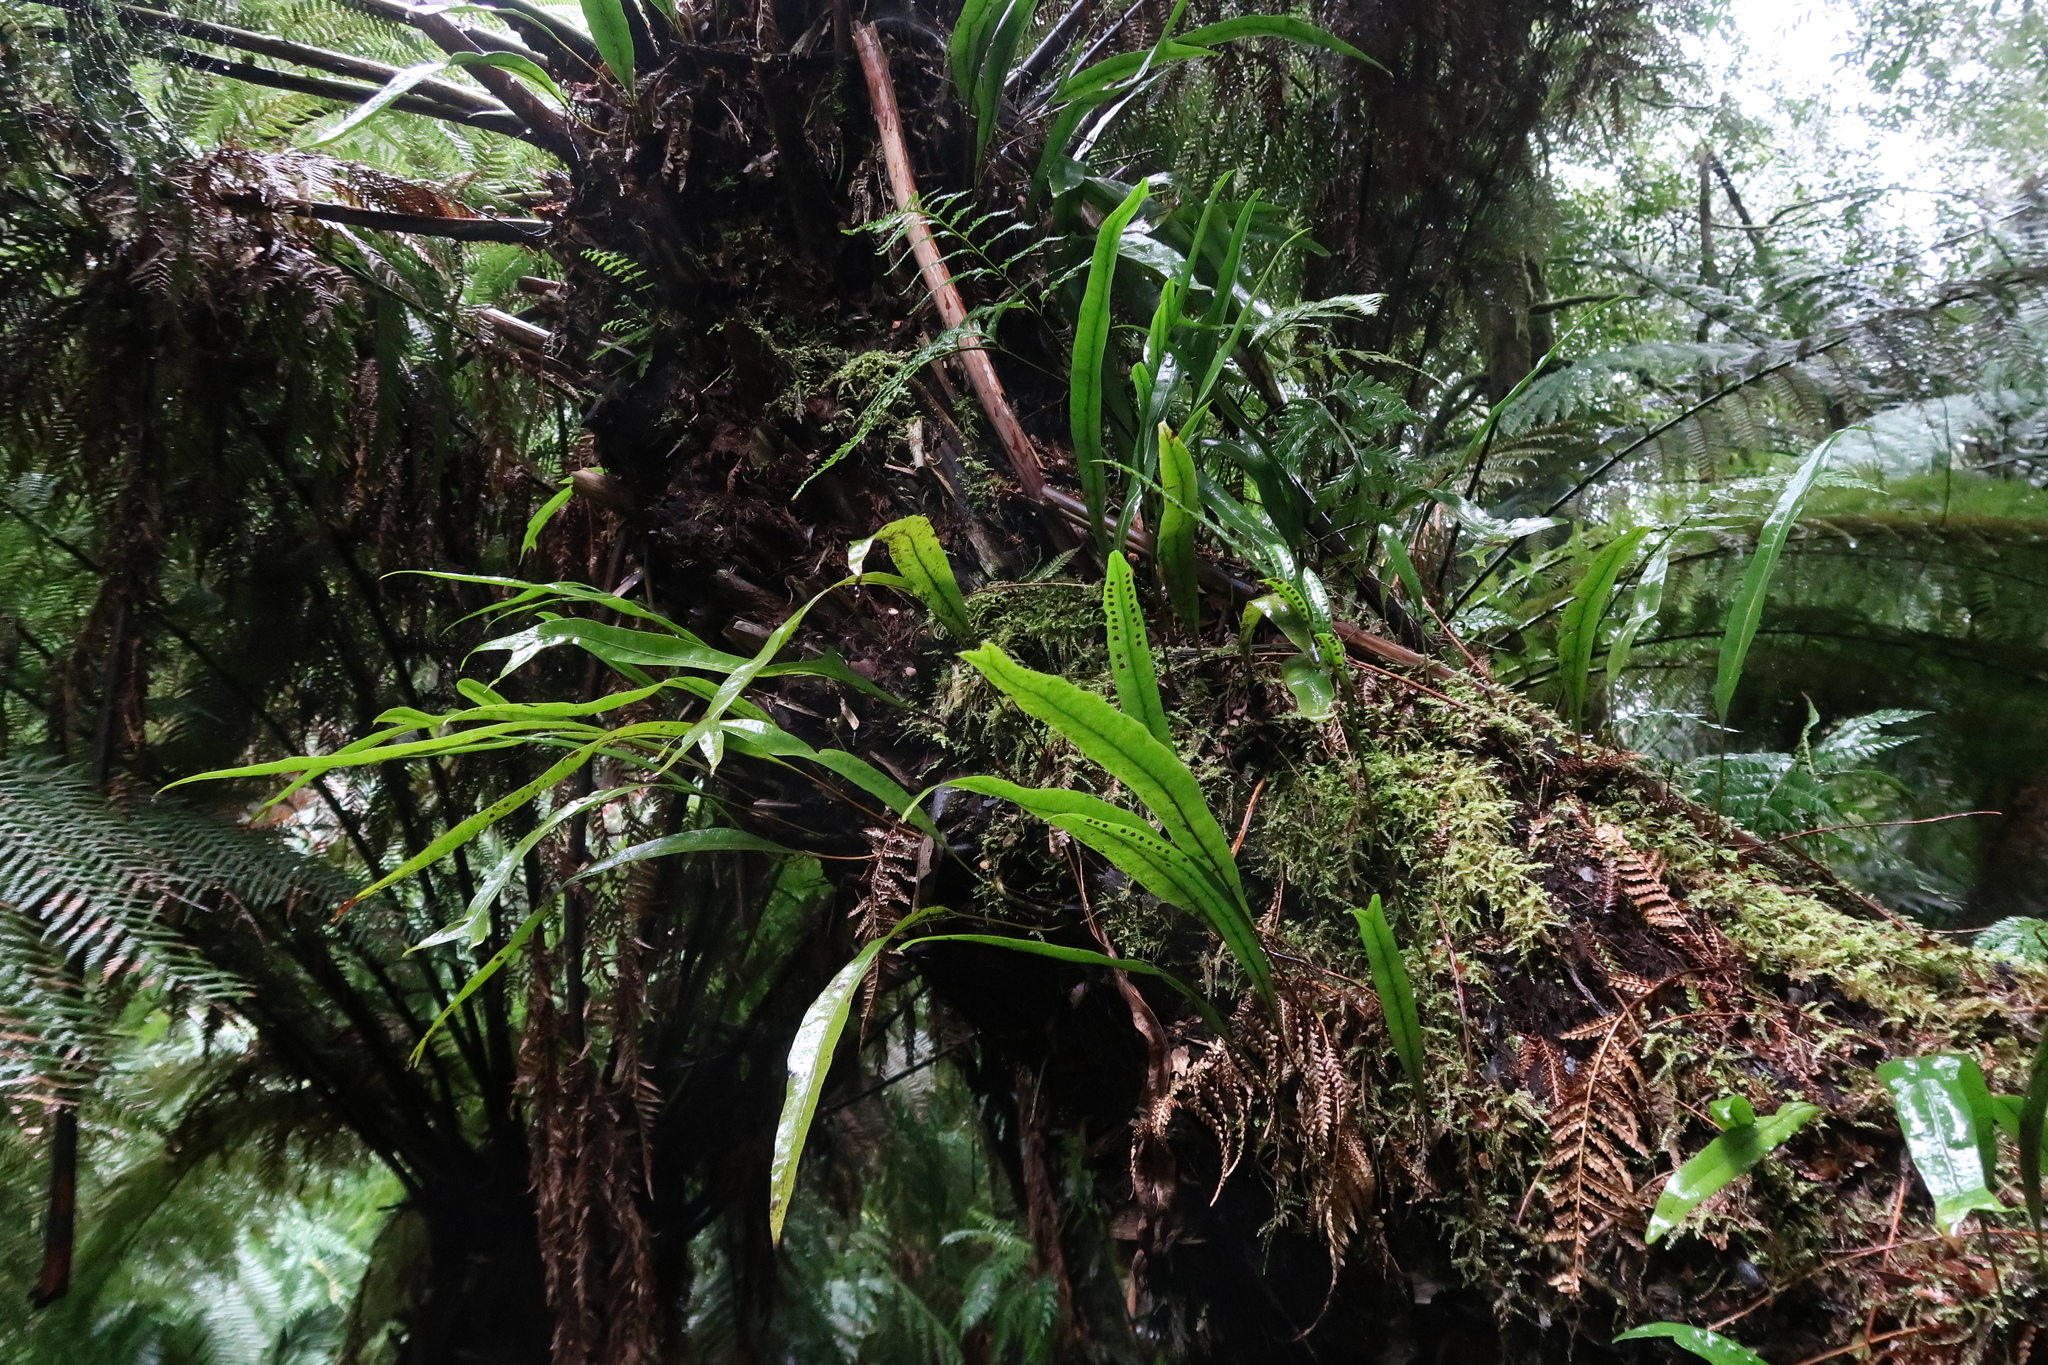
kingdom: Plantae
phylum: Tracheophyta
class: Polypodiopsida
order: Polypodiales
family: Polypodiaceae
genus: Lecanopteris
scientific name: Lecanopteris pustulata
